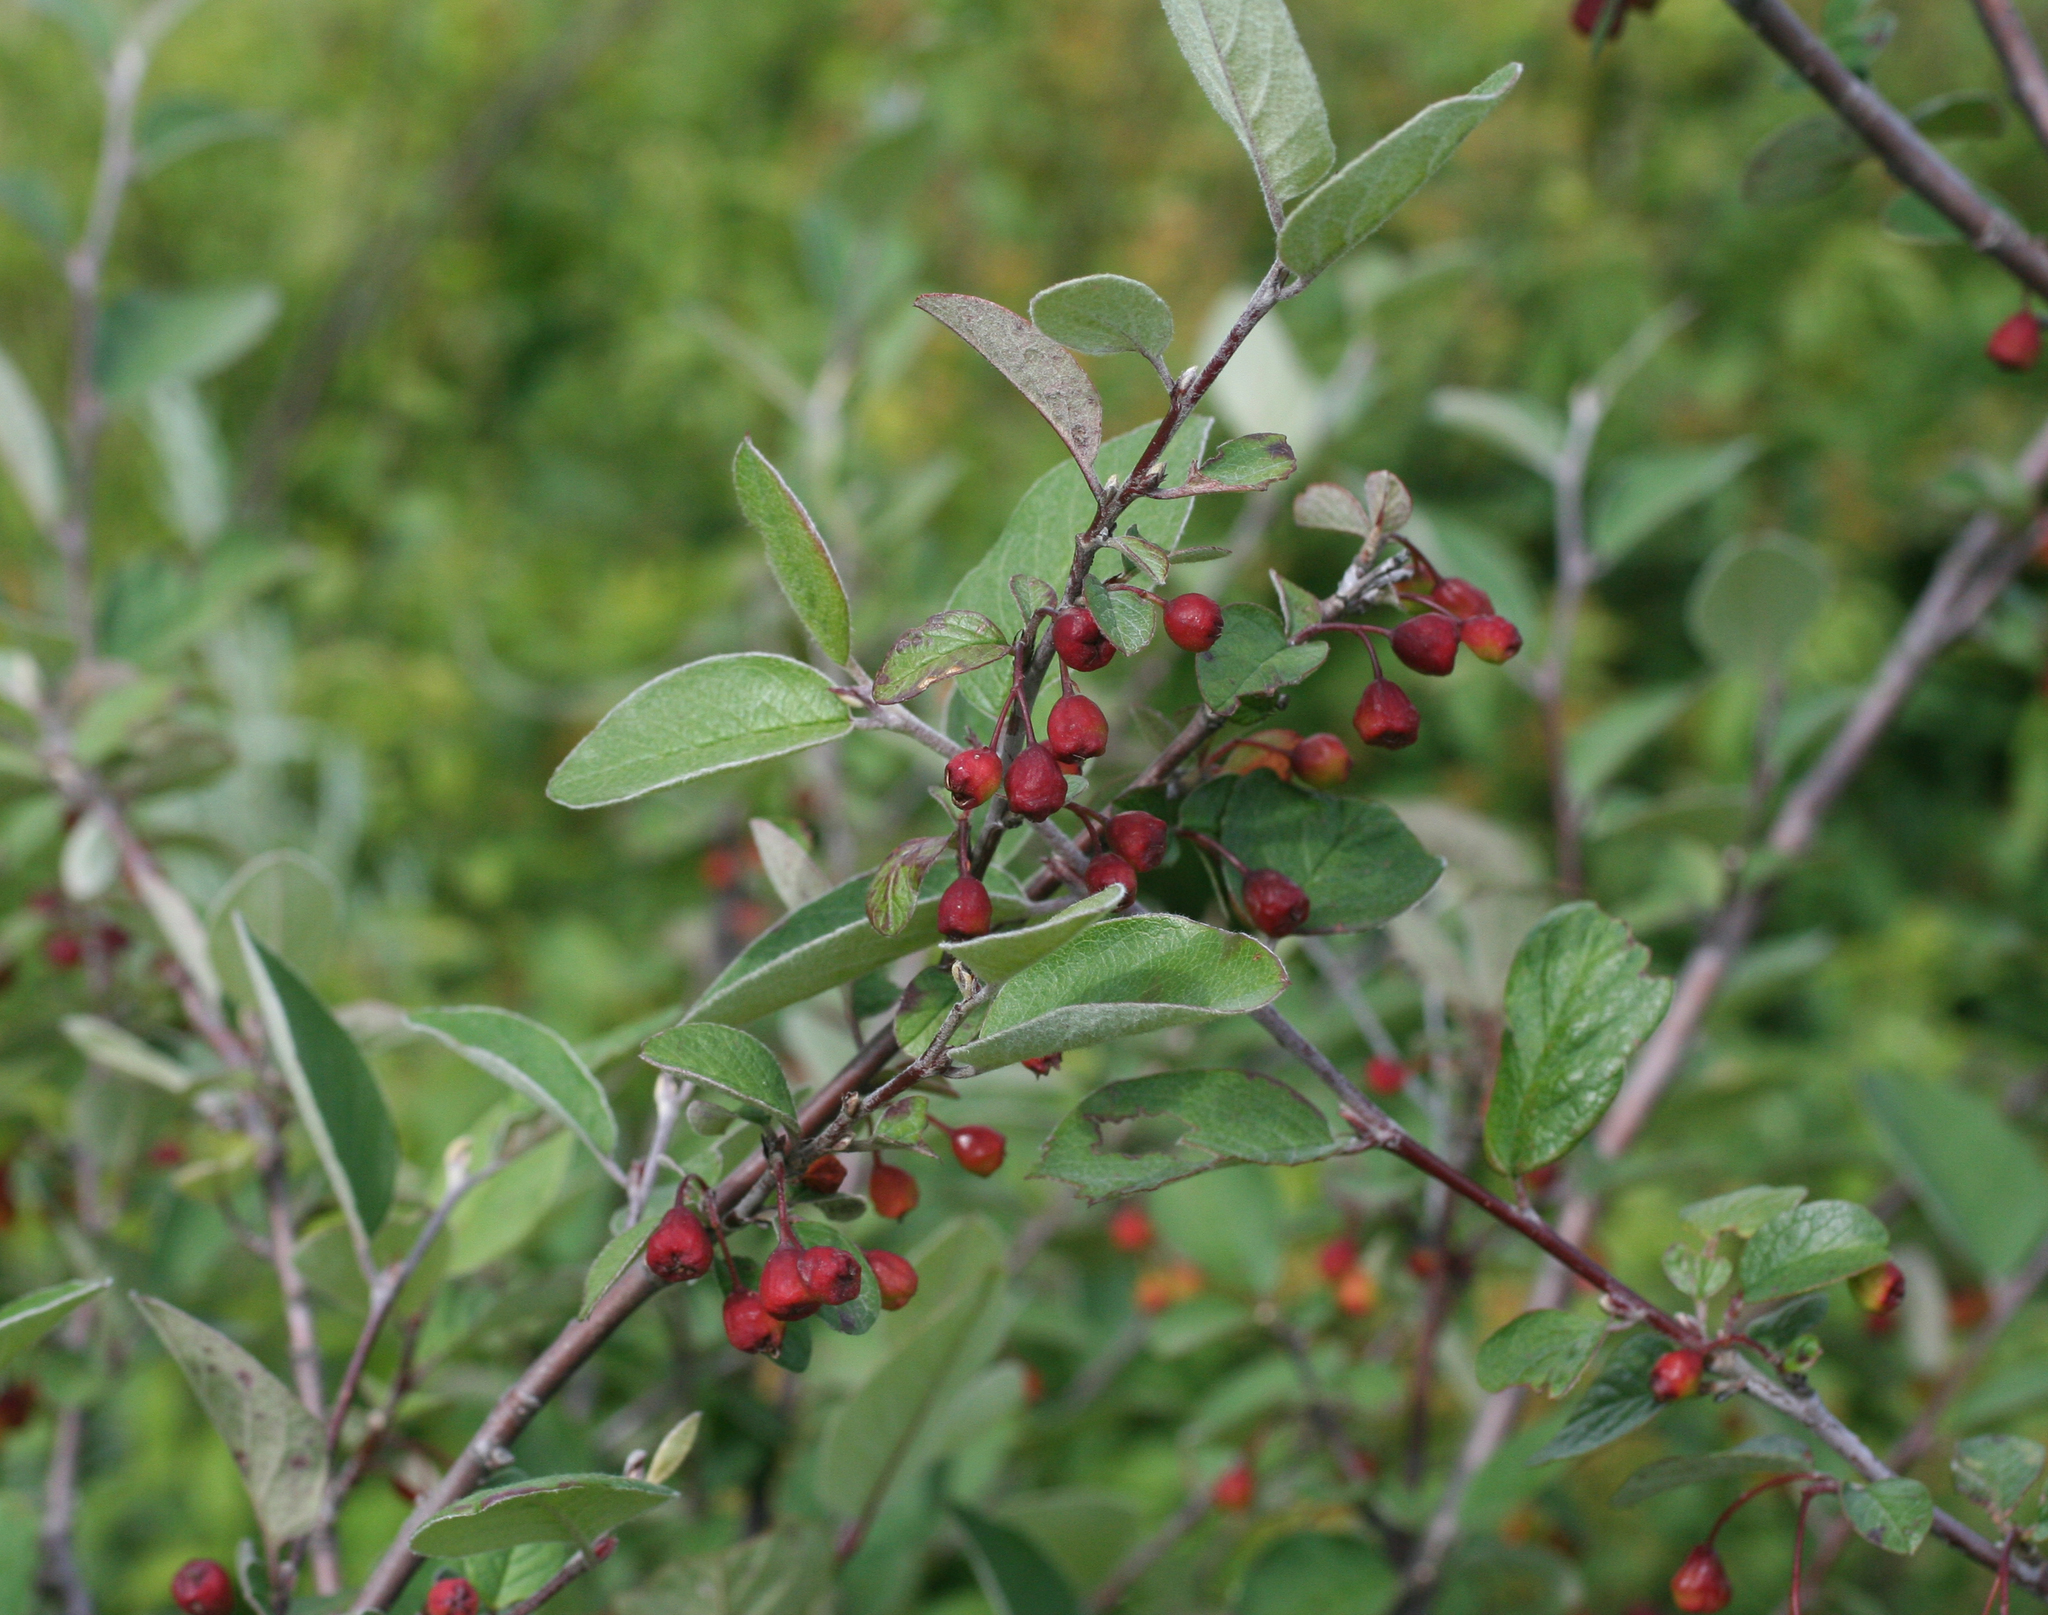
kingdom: Plantae
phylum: Tracheophyta
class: Magnoliopsida
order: Rosales
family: Rosaceae
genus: Cotoneaster
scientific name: Cotoneaster melanocarpus
